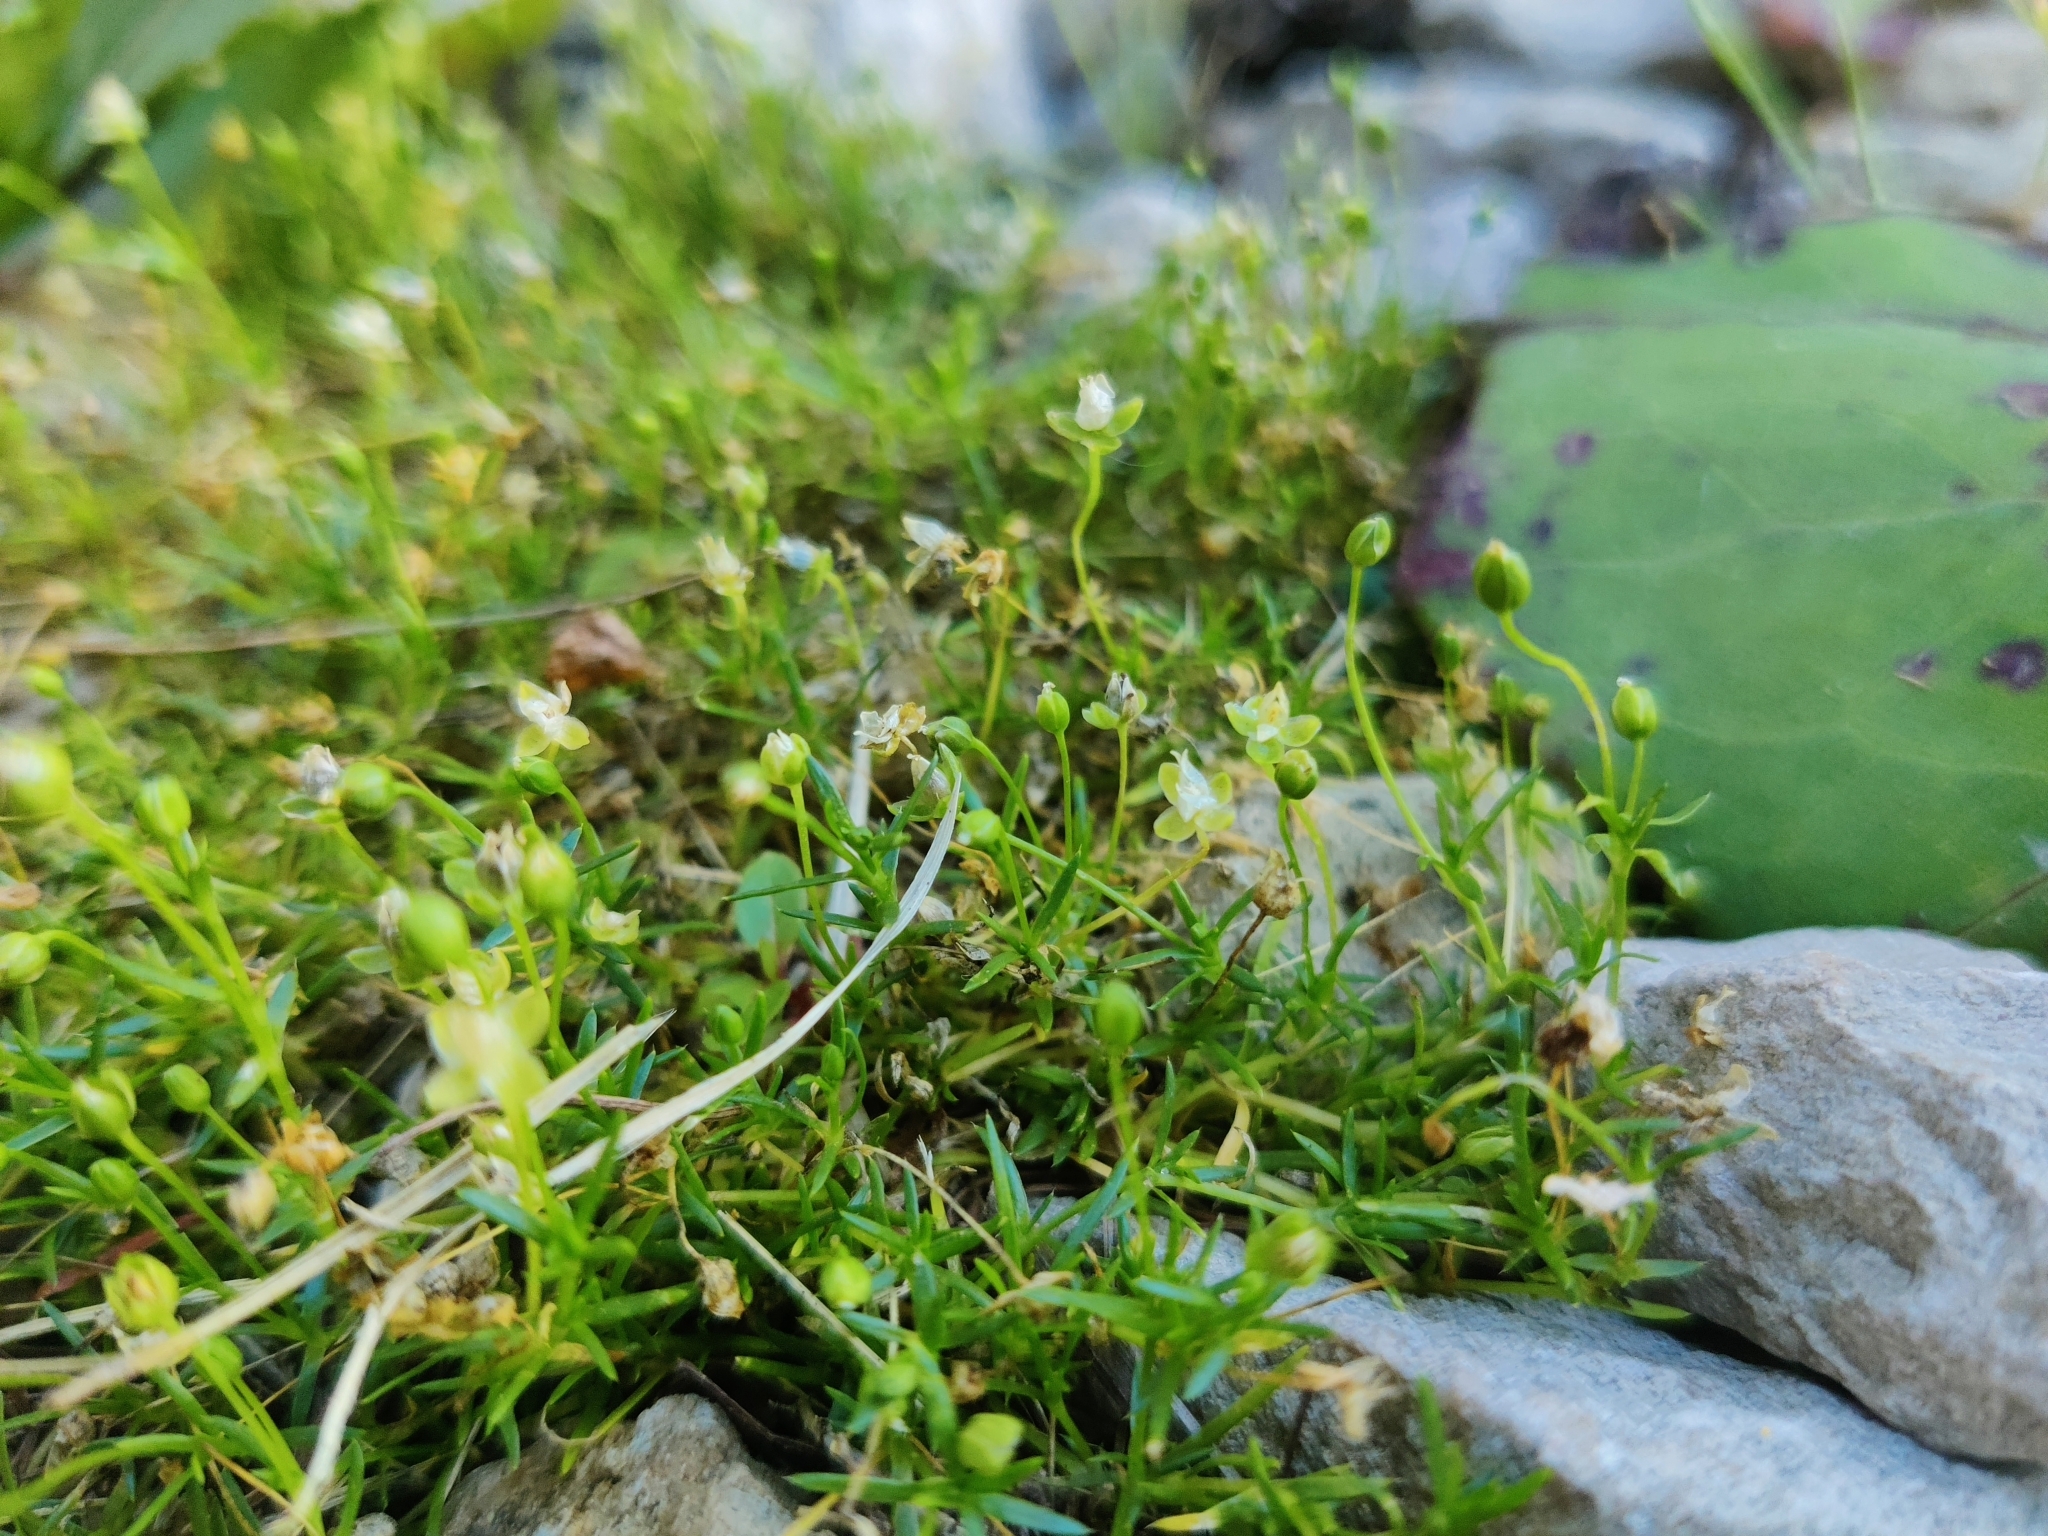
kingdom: Plantae
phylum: Tracheophyta
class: Magnoliopsida
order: Caryophyllales
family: Caryophyllaceae
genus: Sagina
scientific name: Sagina procumbens
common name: Procumbent pearlwort
